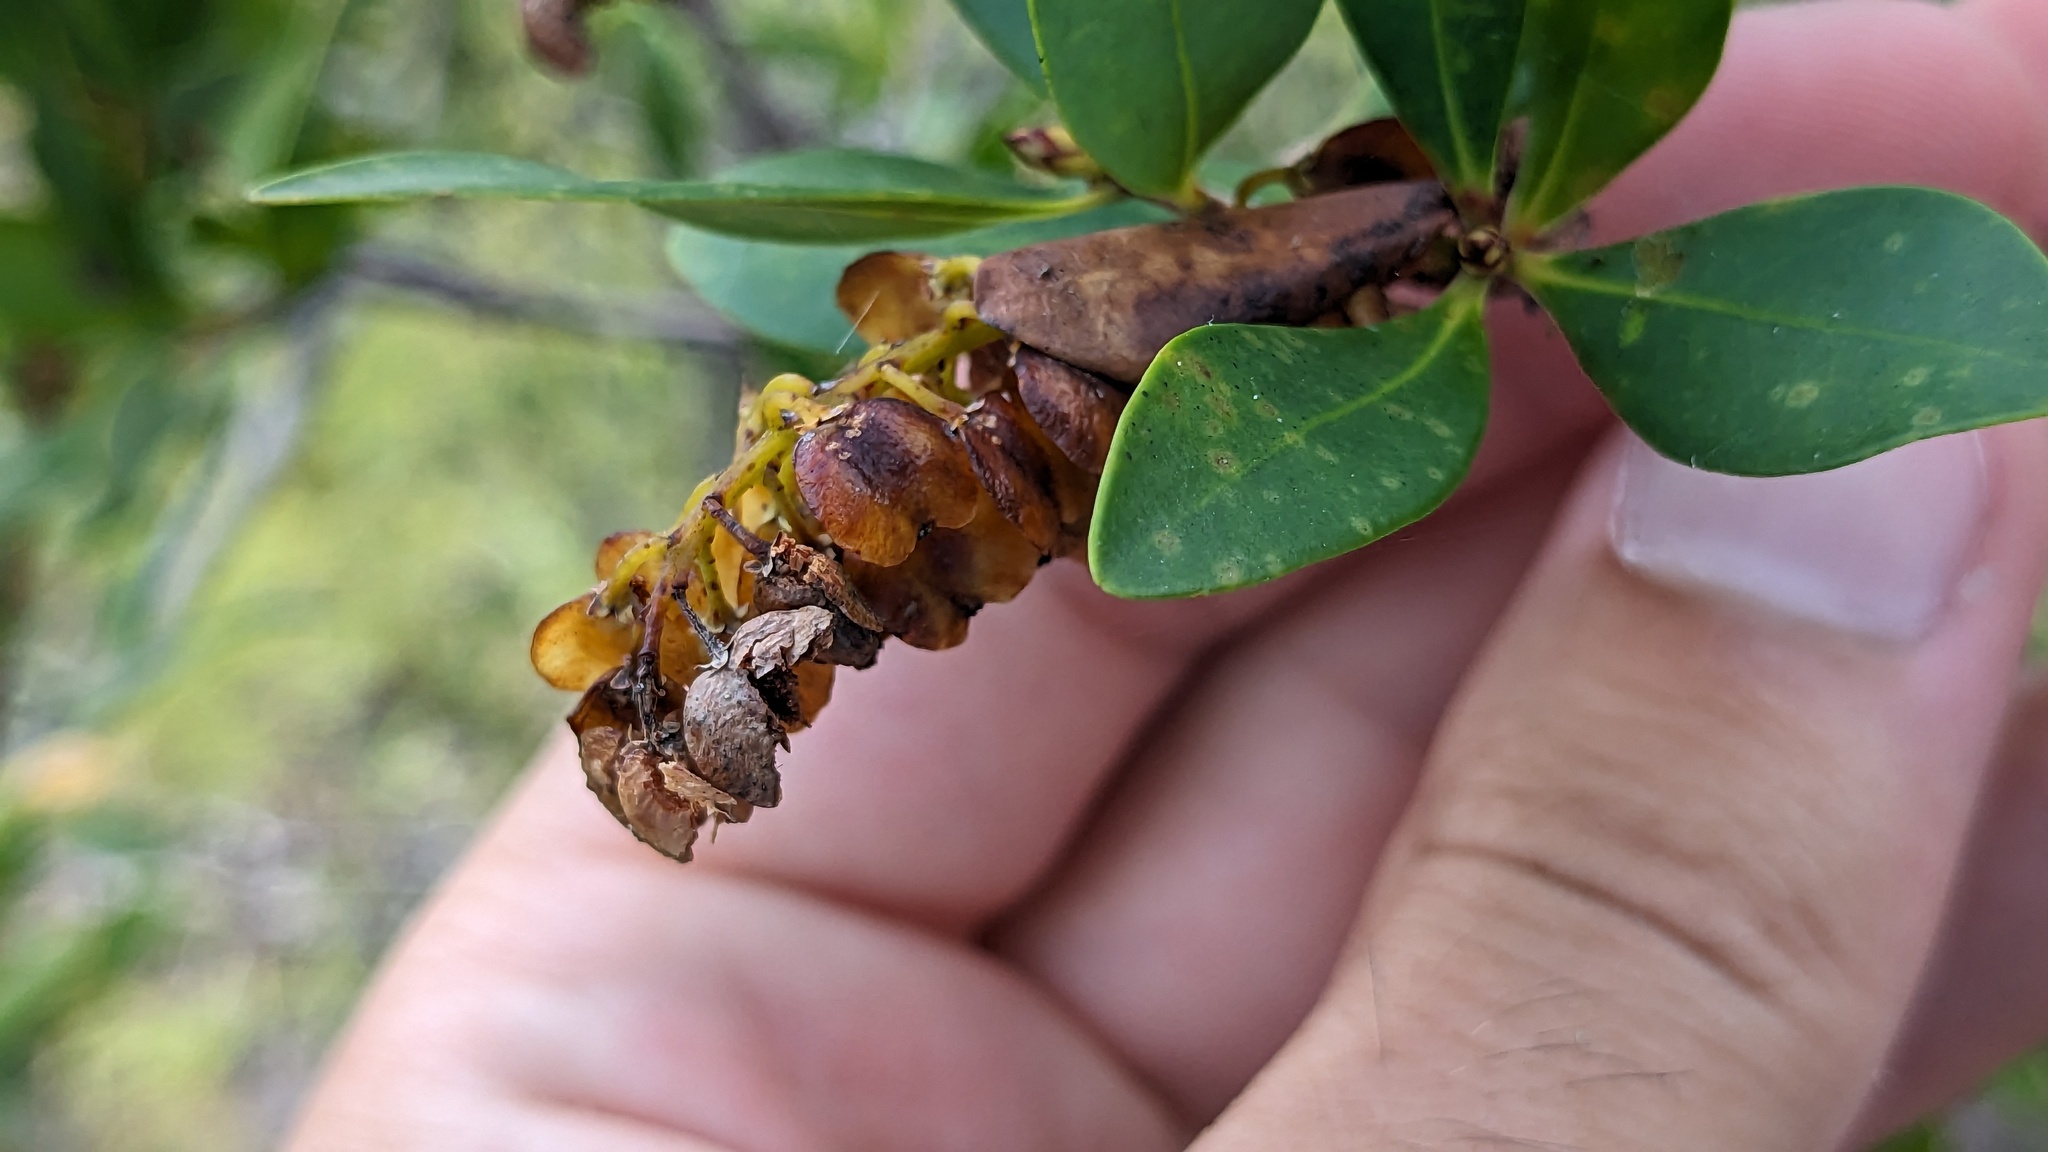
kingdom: Plantae
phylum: Tracheophyta
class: Magnoliopsida
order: Ericales
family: Cyrillaceae
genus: Cliftonia
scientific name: Cliftonia monophylla
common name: Titi
